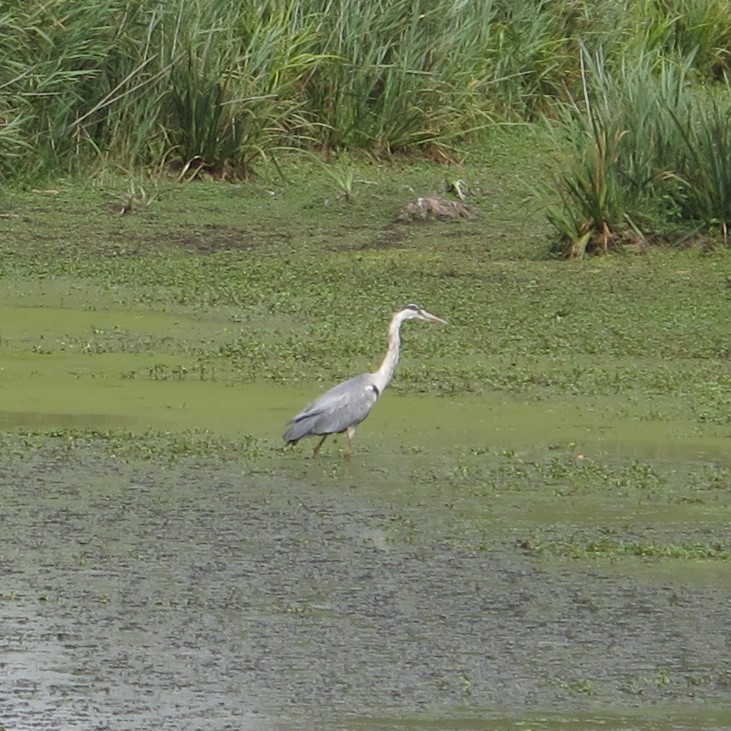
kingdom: Animalia
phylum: Chordata
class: Aves
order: Pelecaniformes
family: Ardeidae
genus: Ardea
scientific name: Ardea cinerea
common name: Grey heron
